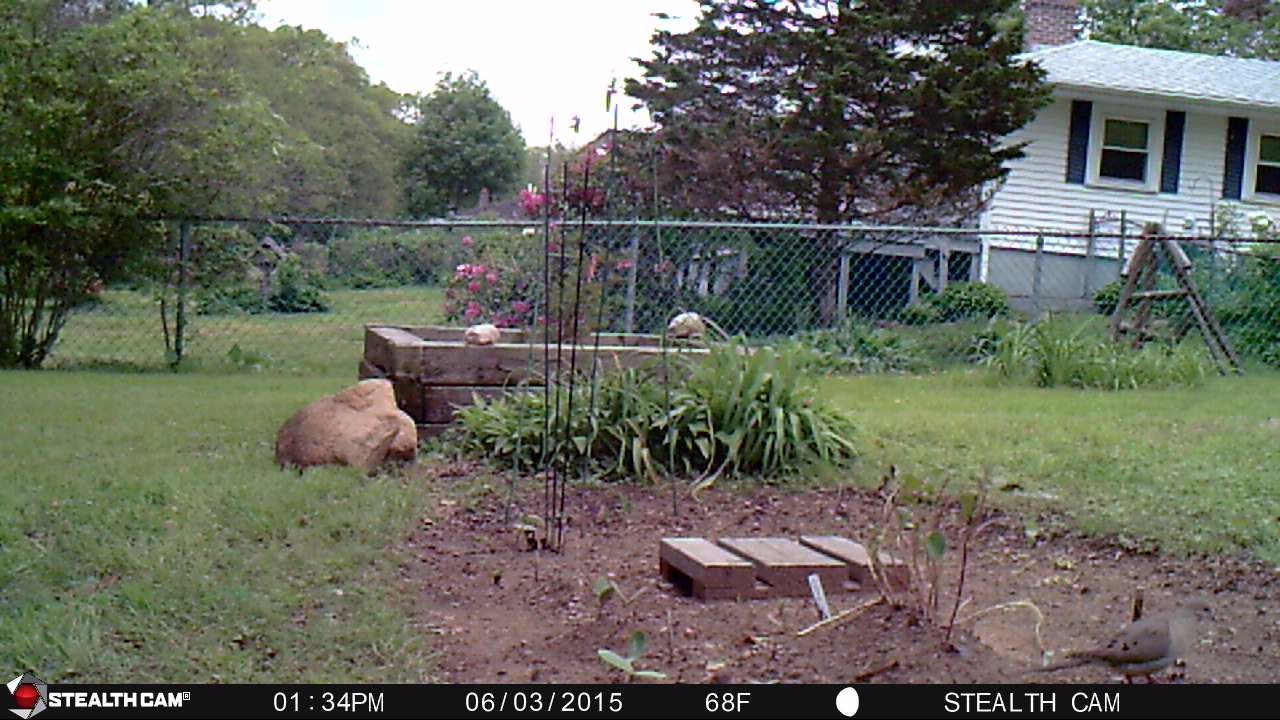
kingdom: Animalia
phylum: Chordata
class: Aves
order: Columbiformes
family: Columbidae
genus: Zenaida
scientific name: Zenaida macroura
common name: Mourning dove
